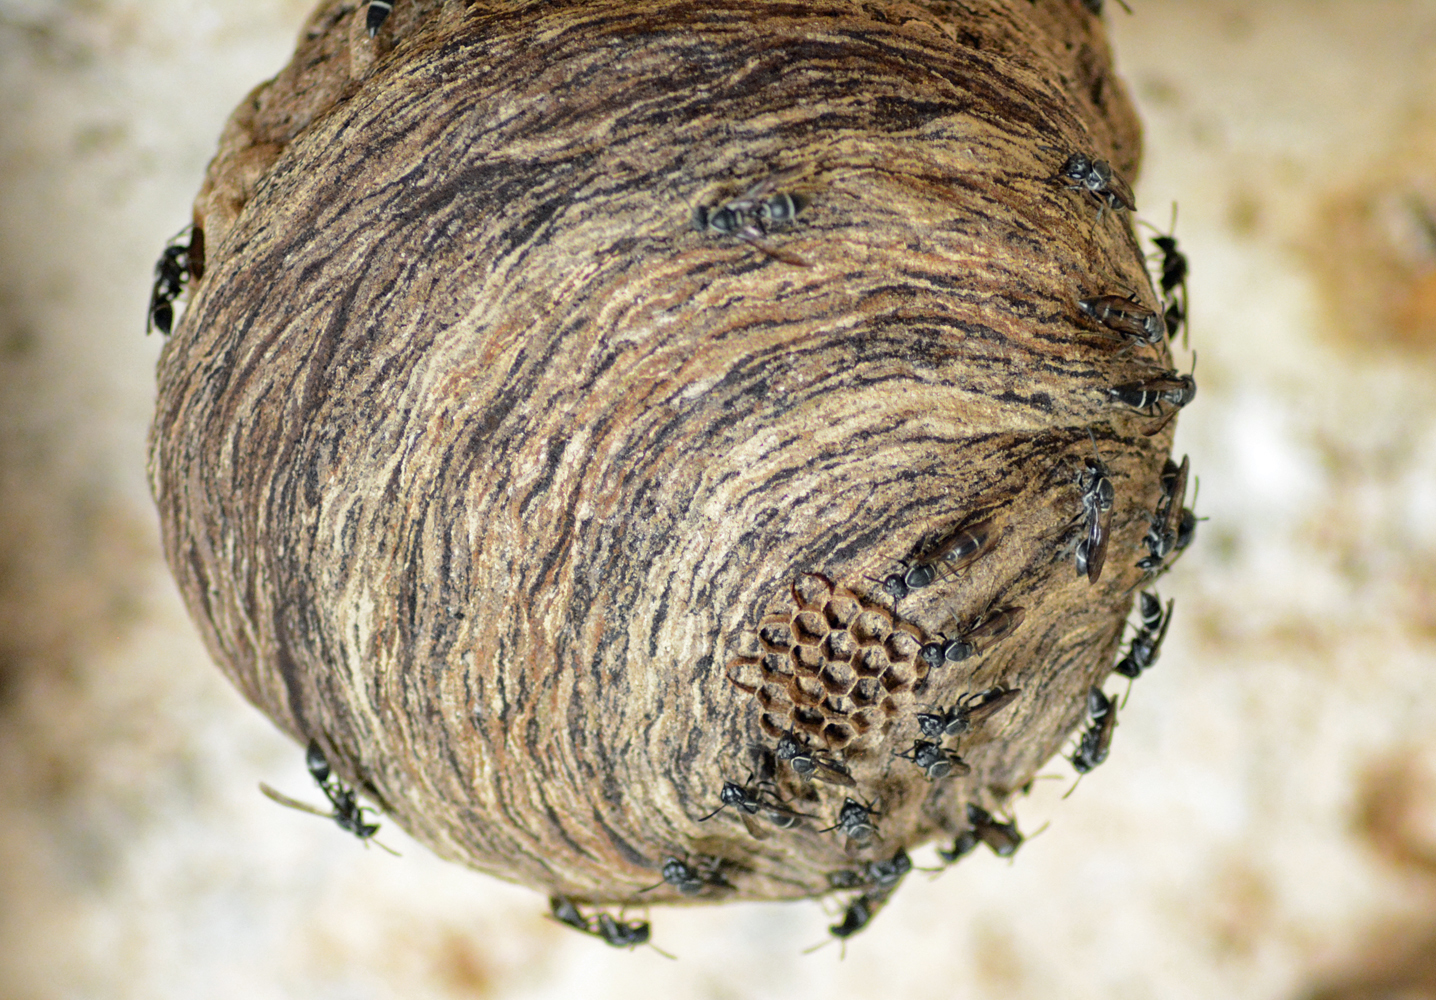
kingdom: Animalia
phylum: Arthropoda
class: Insecta
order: Hymenoptera
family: Eumenidae
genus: Polybia
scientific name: Polybia plebeja
